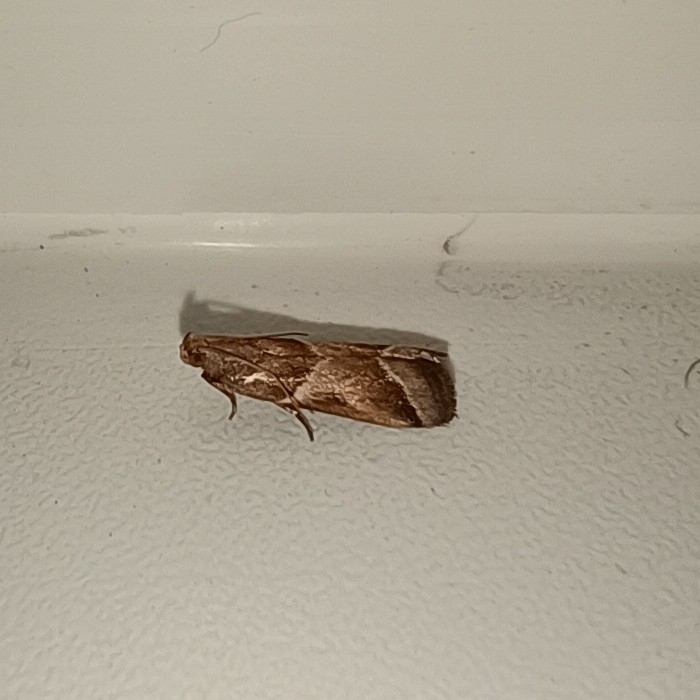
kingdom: Animalia
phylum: Arthropoda
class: Insecta
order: Lepidoptera
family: Pyralidae
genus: Nyctegretis
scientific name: Nyctegretis lineana
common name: Agate knot-horn
